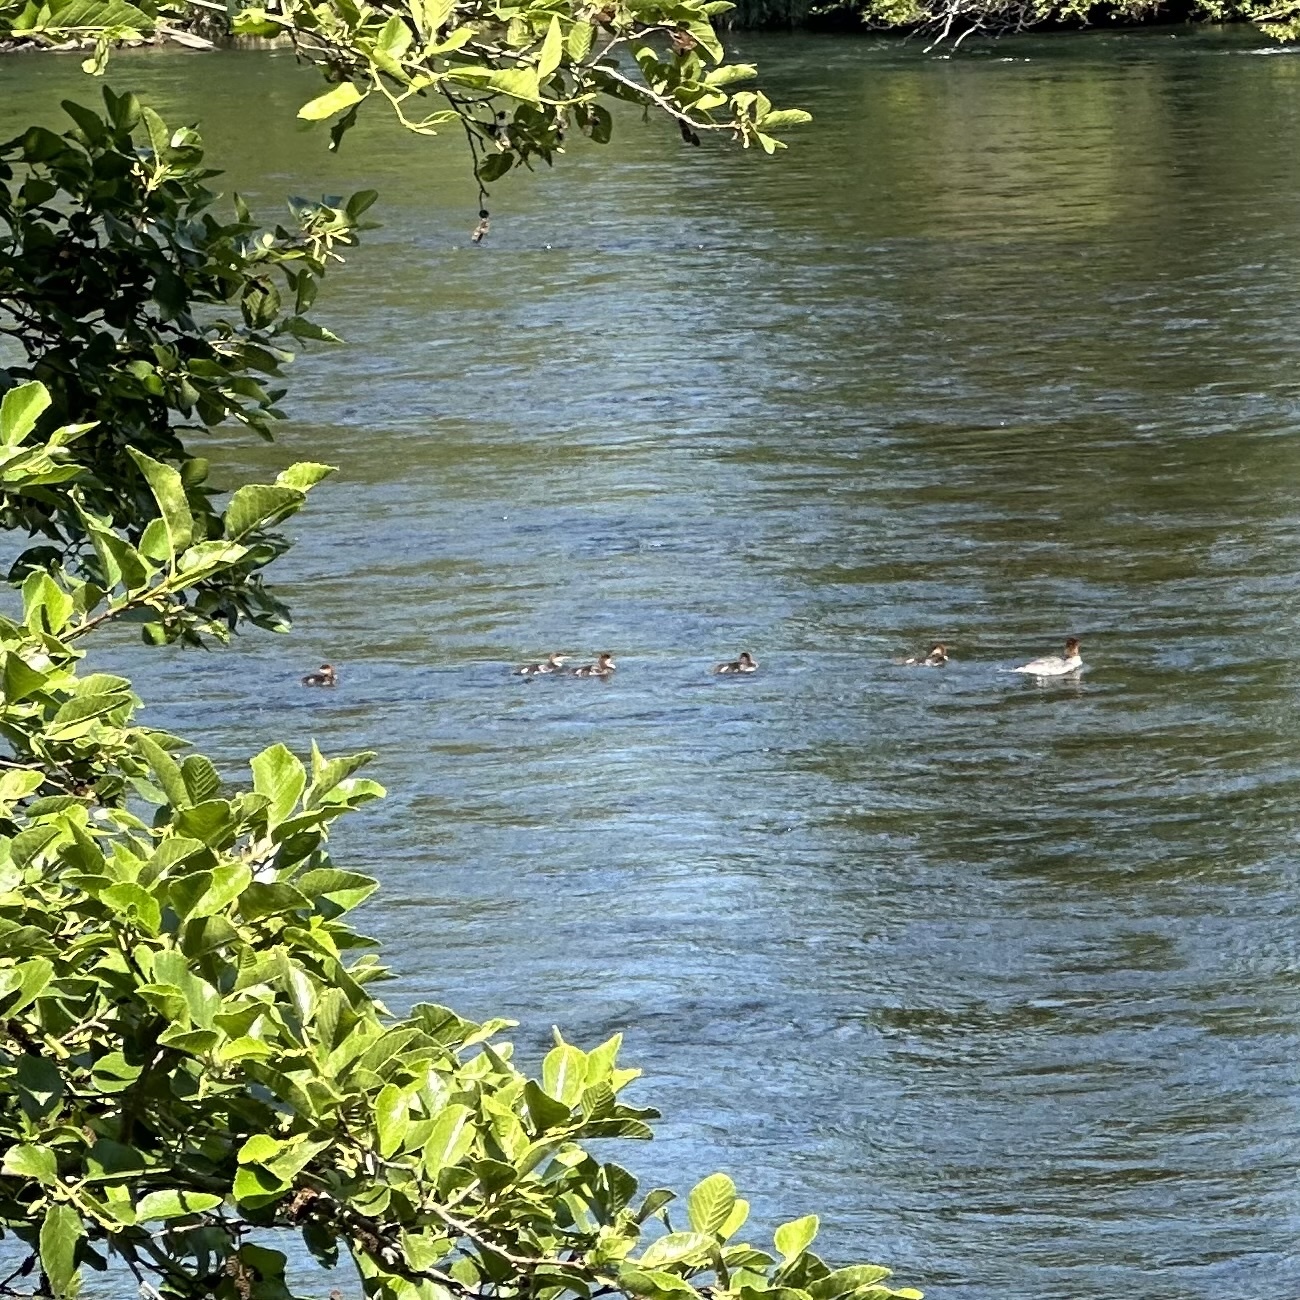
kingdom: Animalia
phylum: Chordata
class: Aves
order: Anseriformes
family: Anatidae
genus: Mergus
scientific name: Mergus merganser
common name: Common merganser
